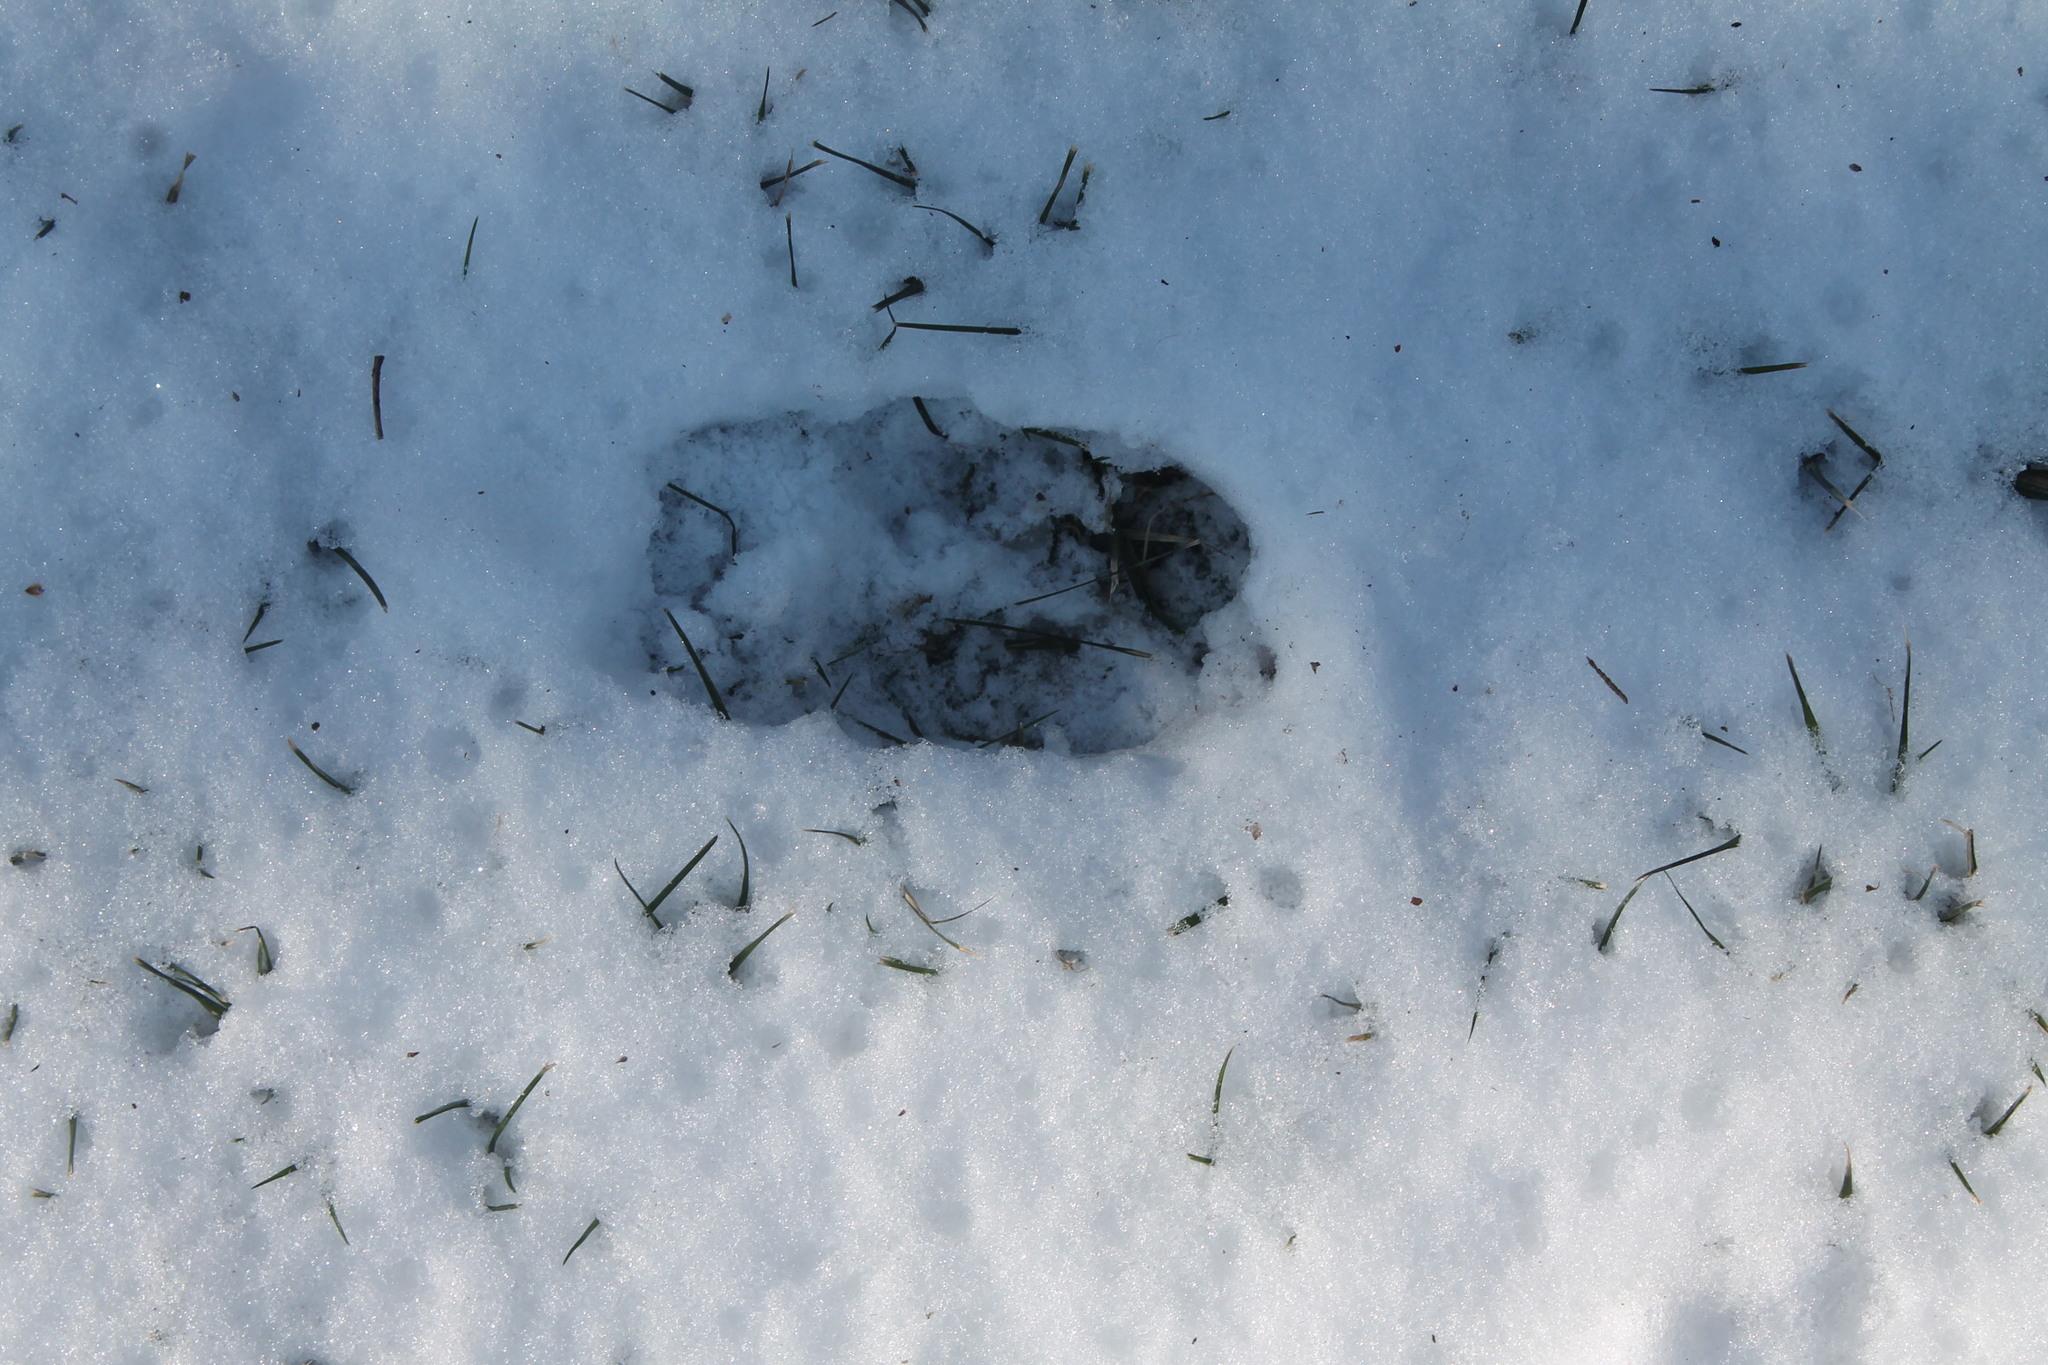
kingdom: Animalia
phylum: Chordata
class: Mammalia
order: Artiodactyla
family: Cervidae
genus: Odocoileus
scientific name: Odocoileus virginianus
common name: White-tailed deer
